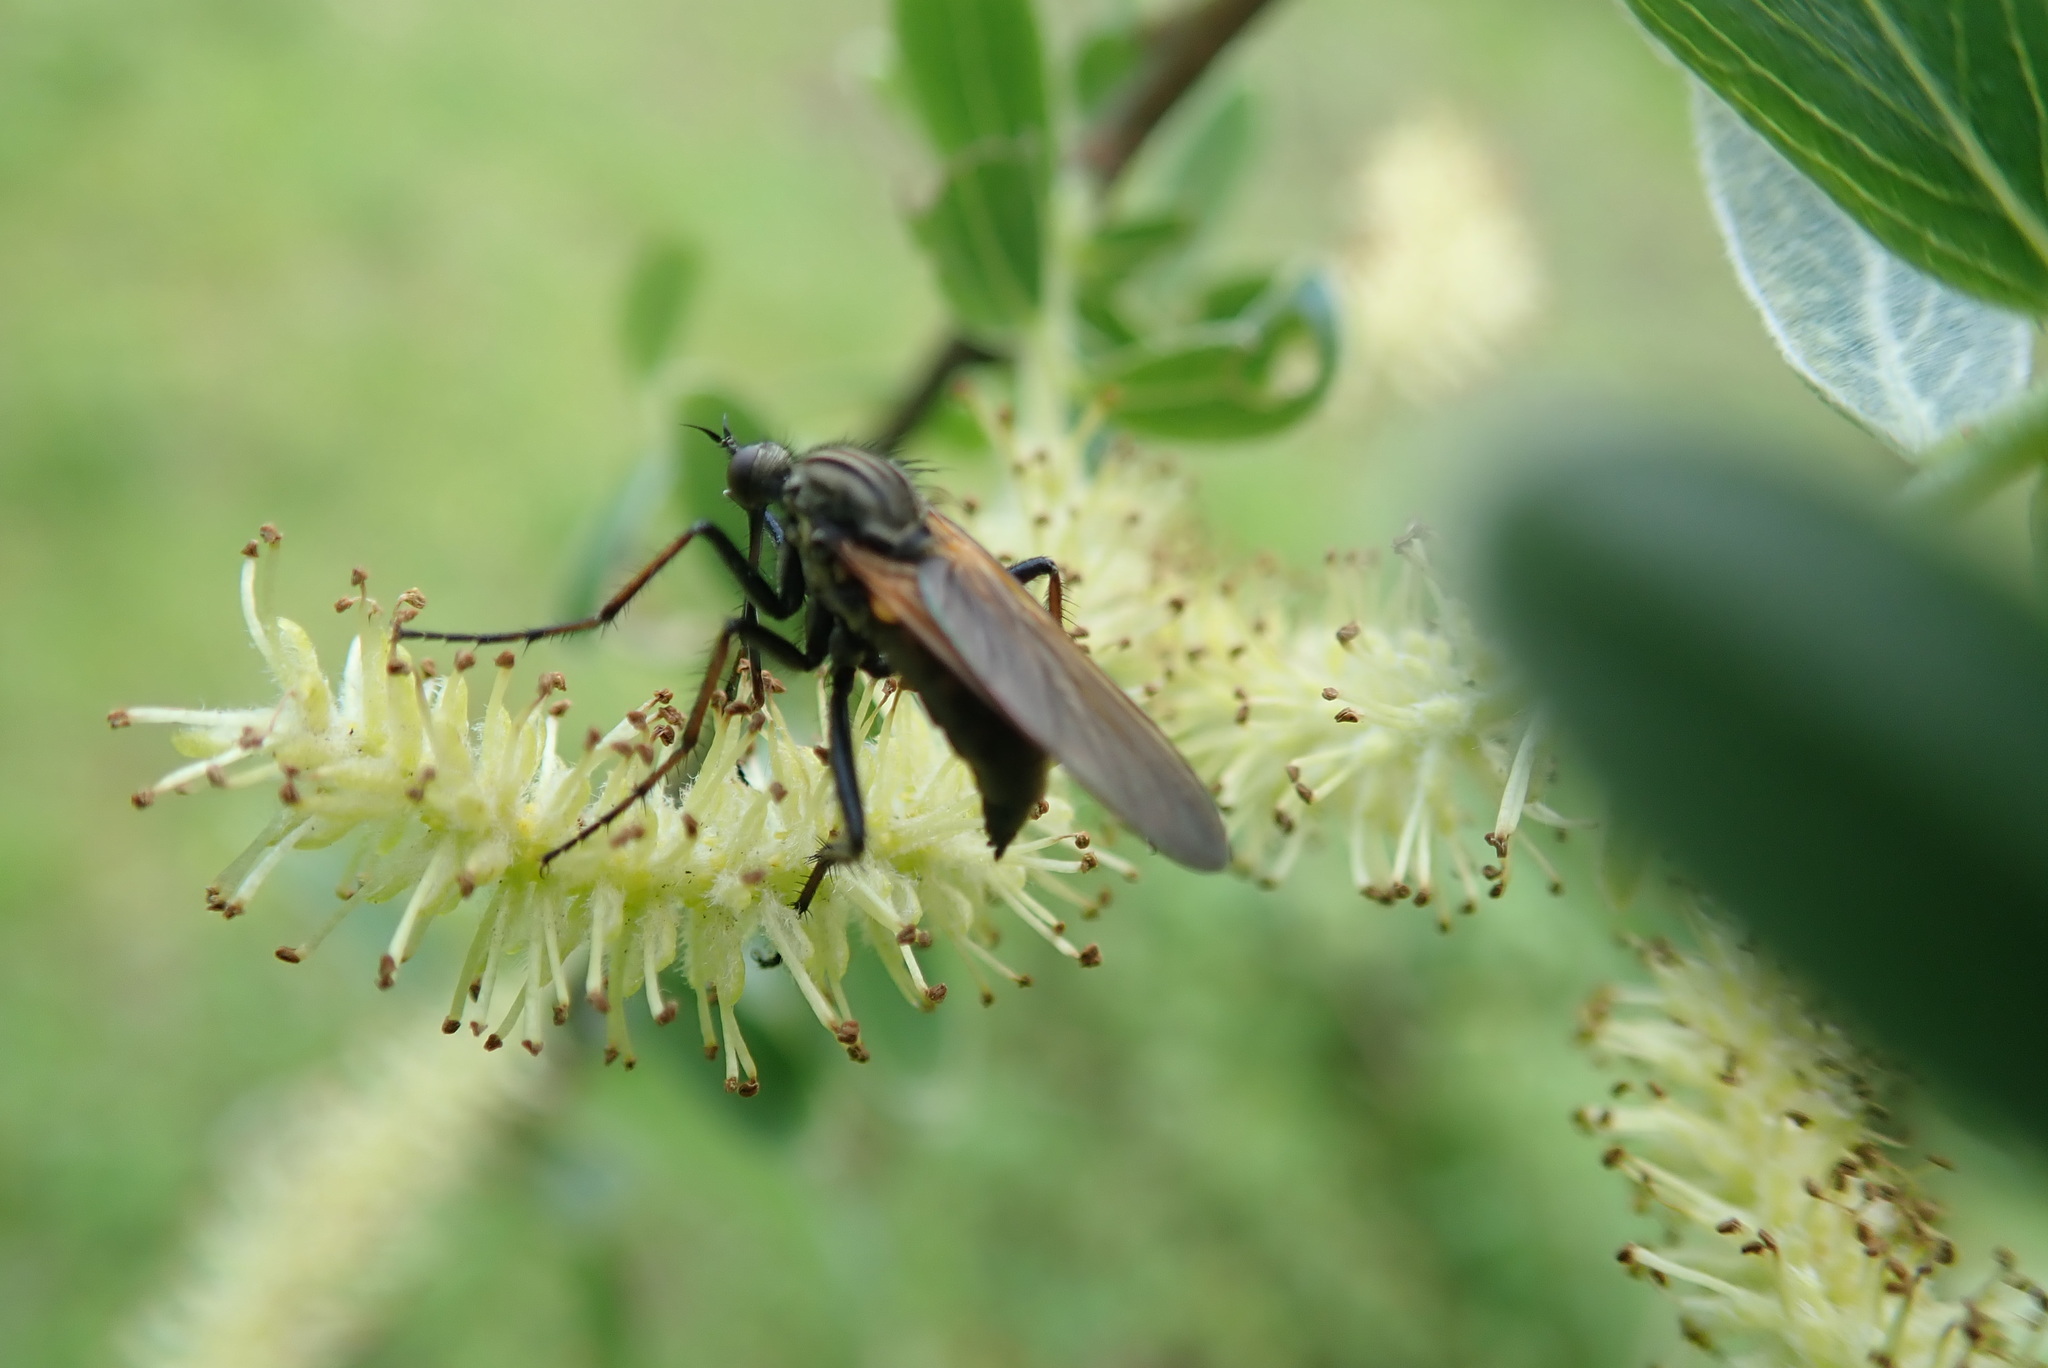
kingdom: Animalia
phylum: Arthropoda
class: Insecta
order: Diptera
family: Empididae
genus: Empis
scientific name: Empis tessellata
